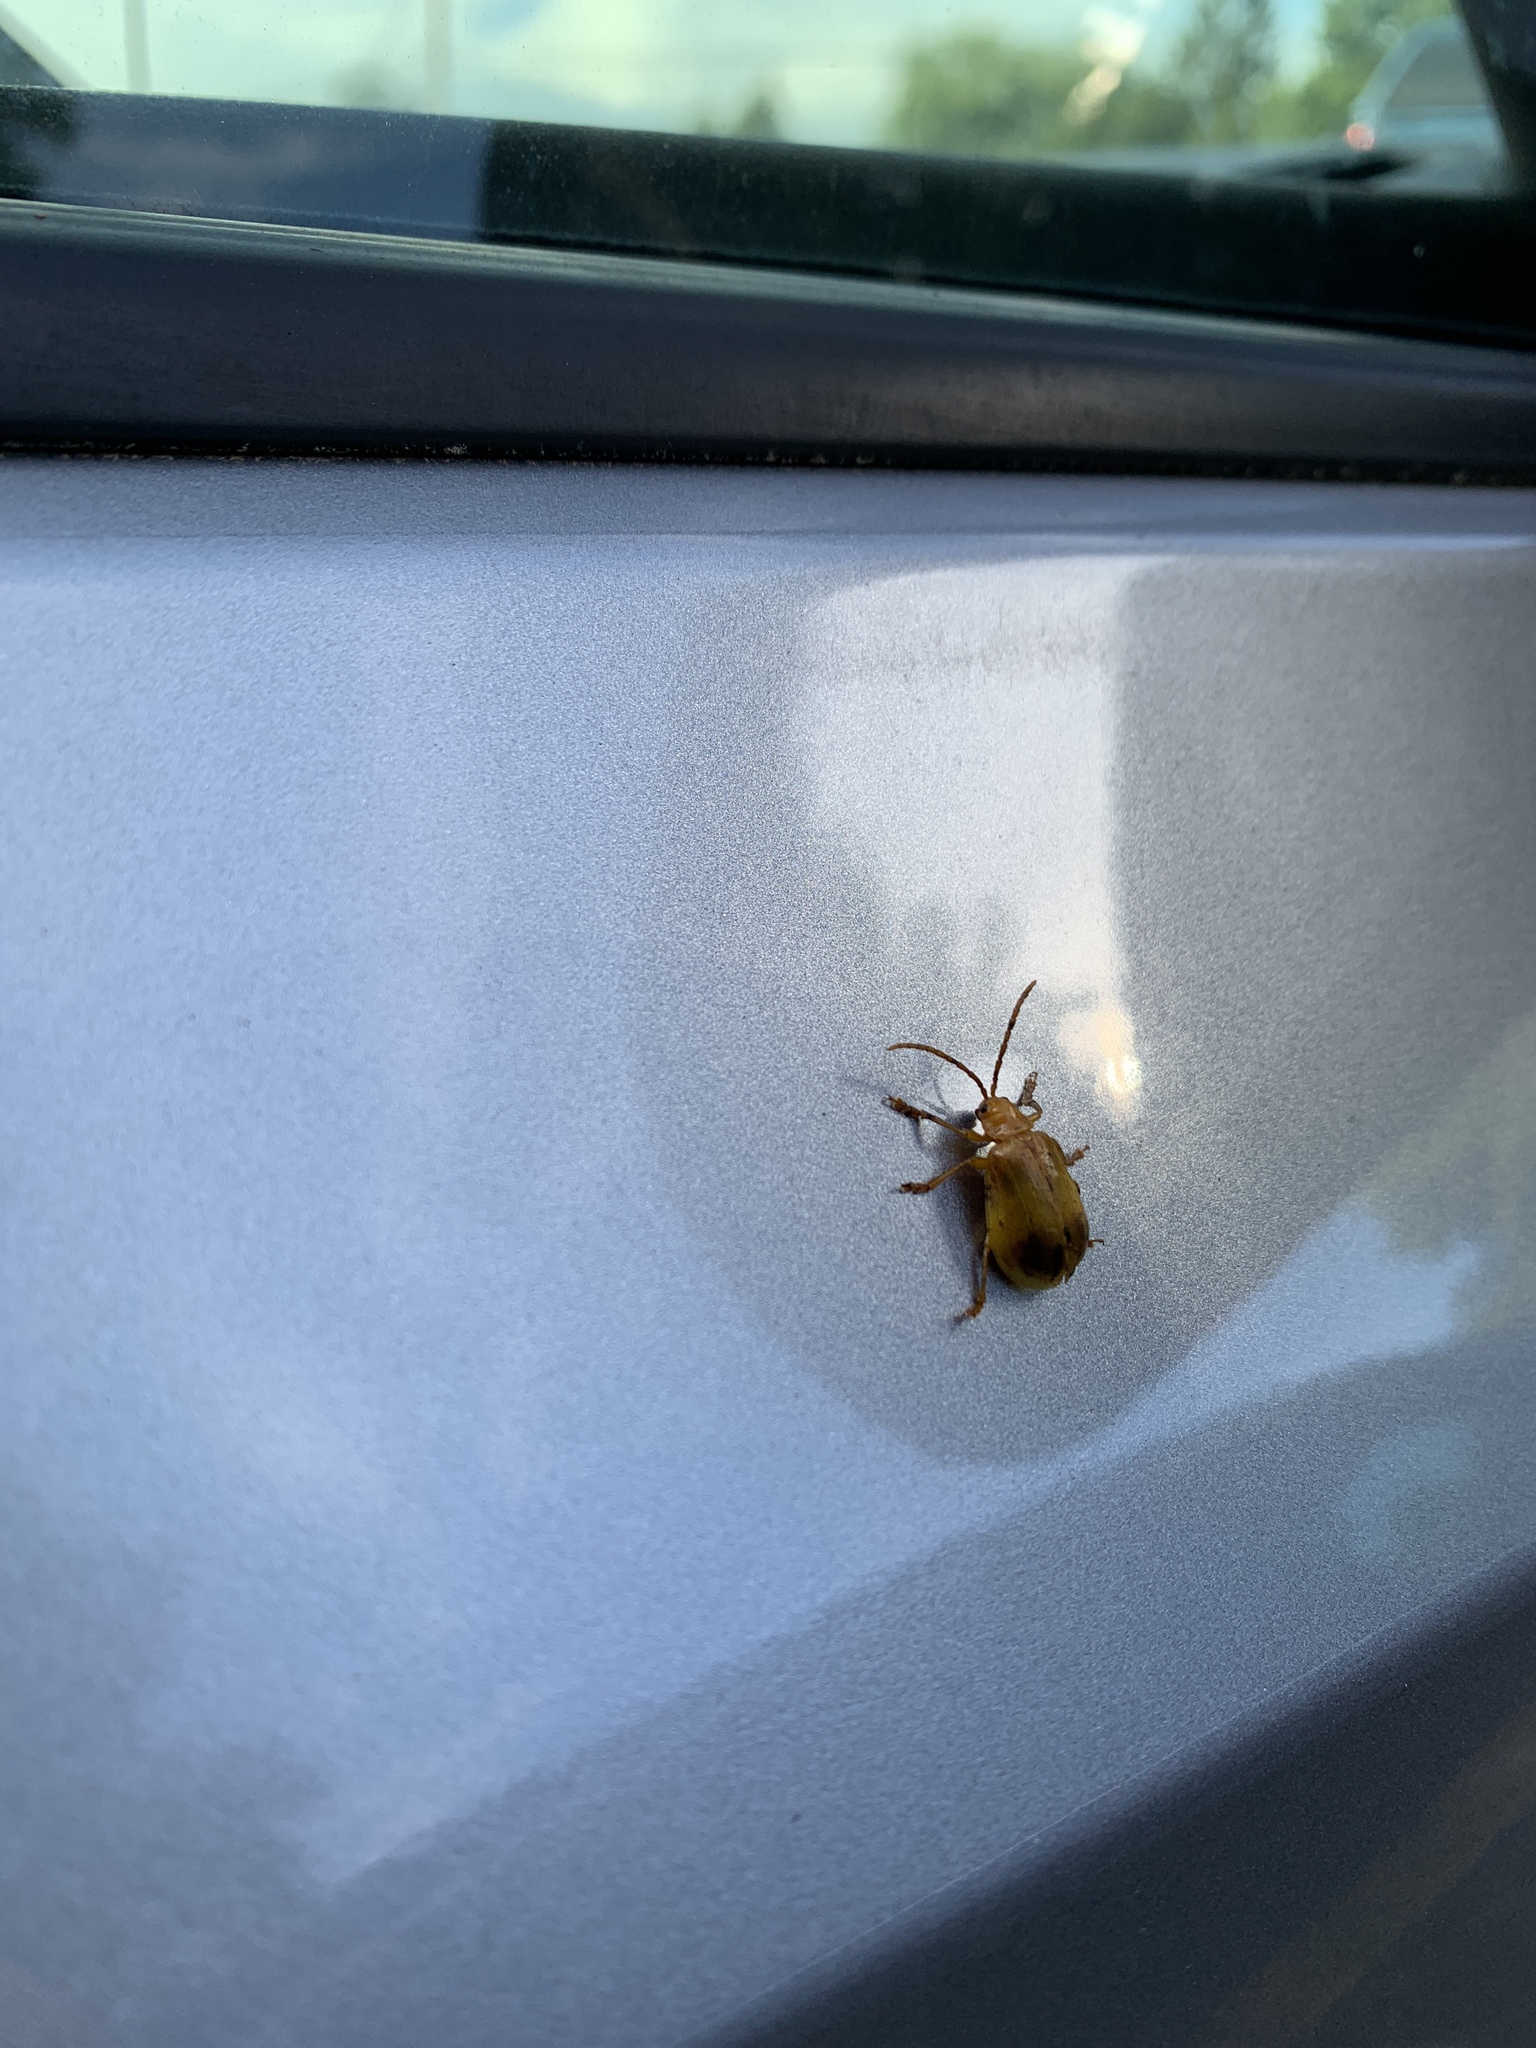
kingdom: Animalia
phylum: Arthropoda
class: Insecta
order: Coleoptera
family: Chrysomelidae
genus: Monocesta
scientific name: Monocesta coryli
